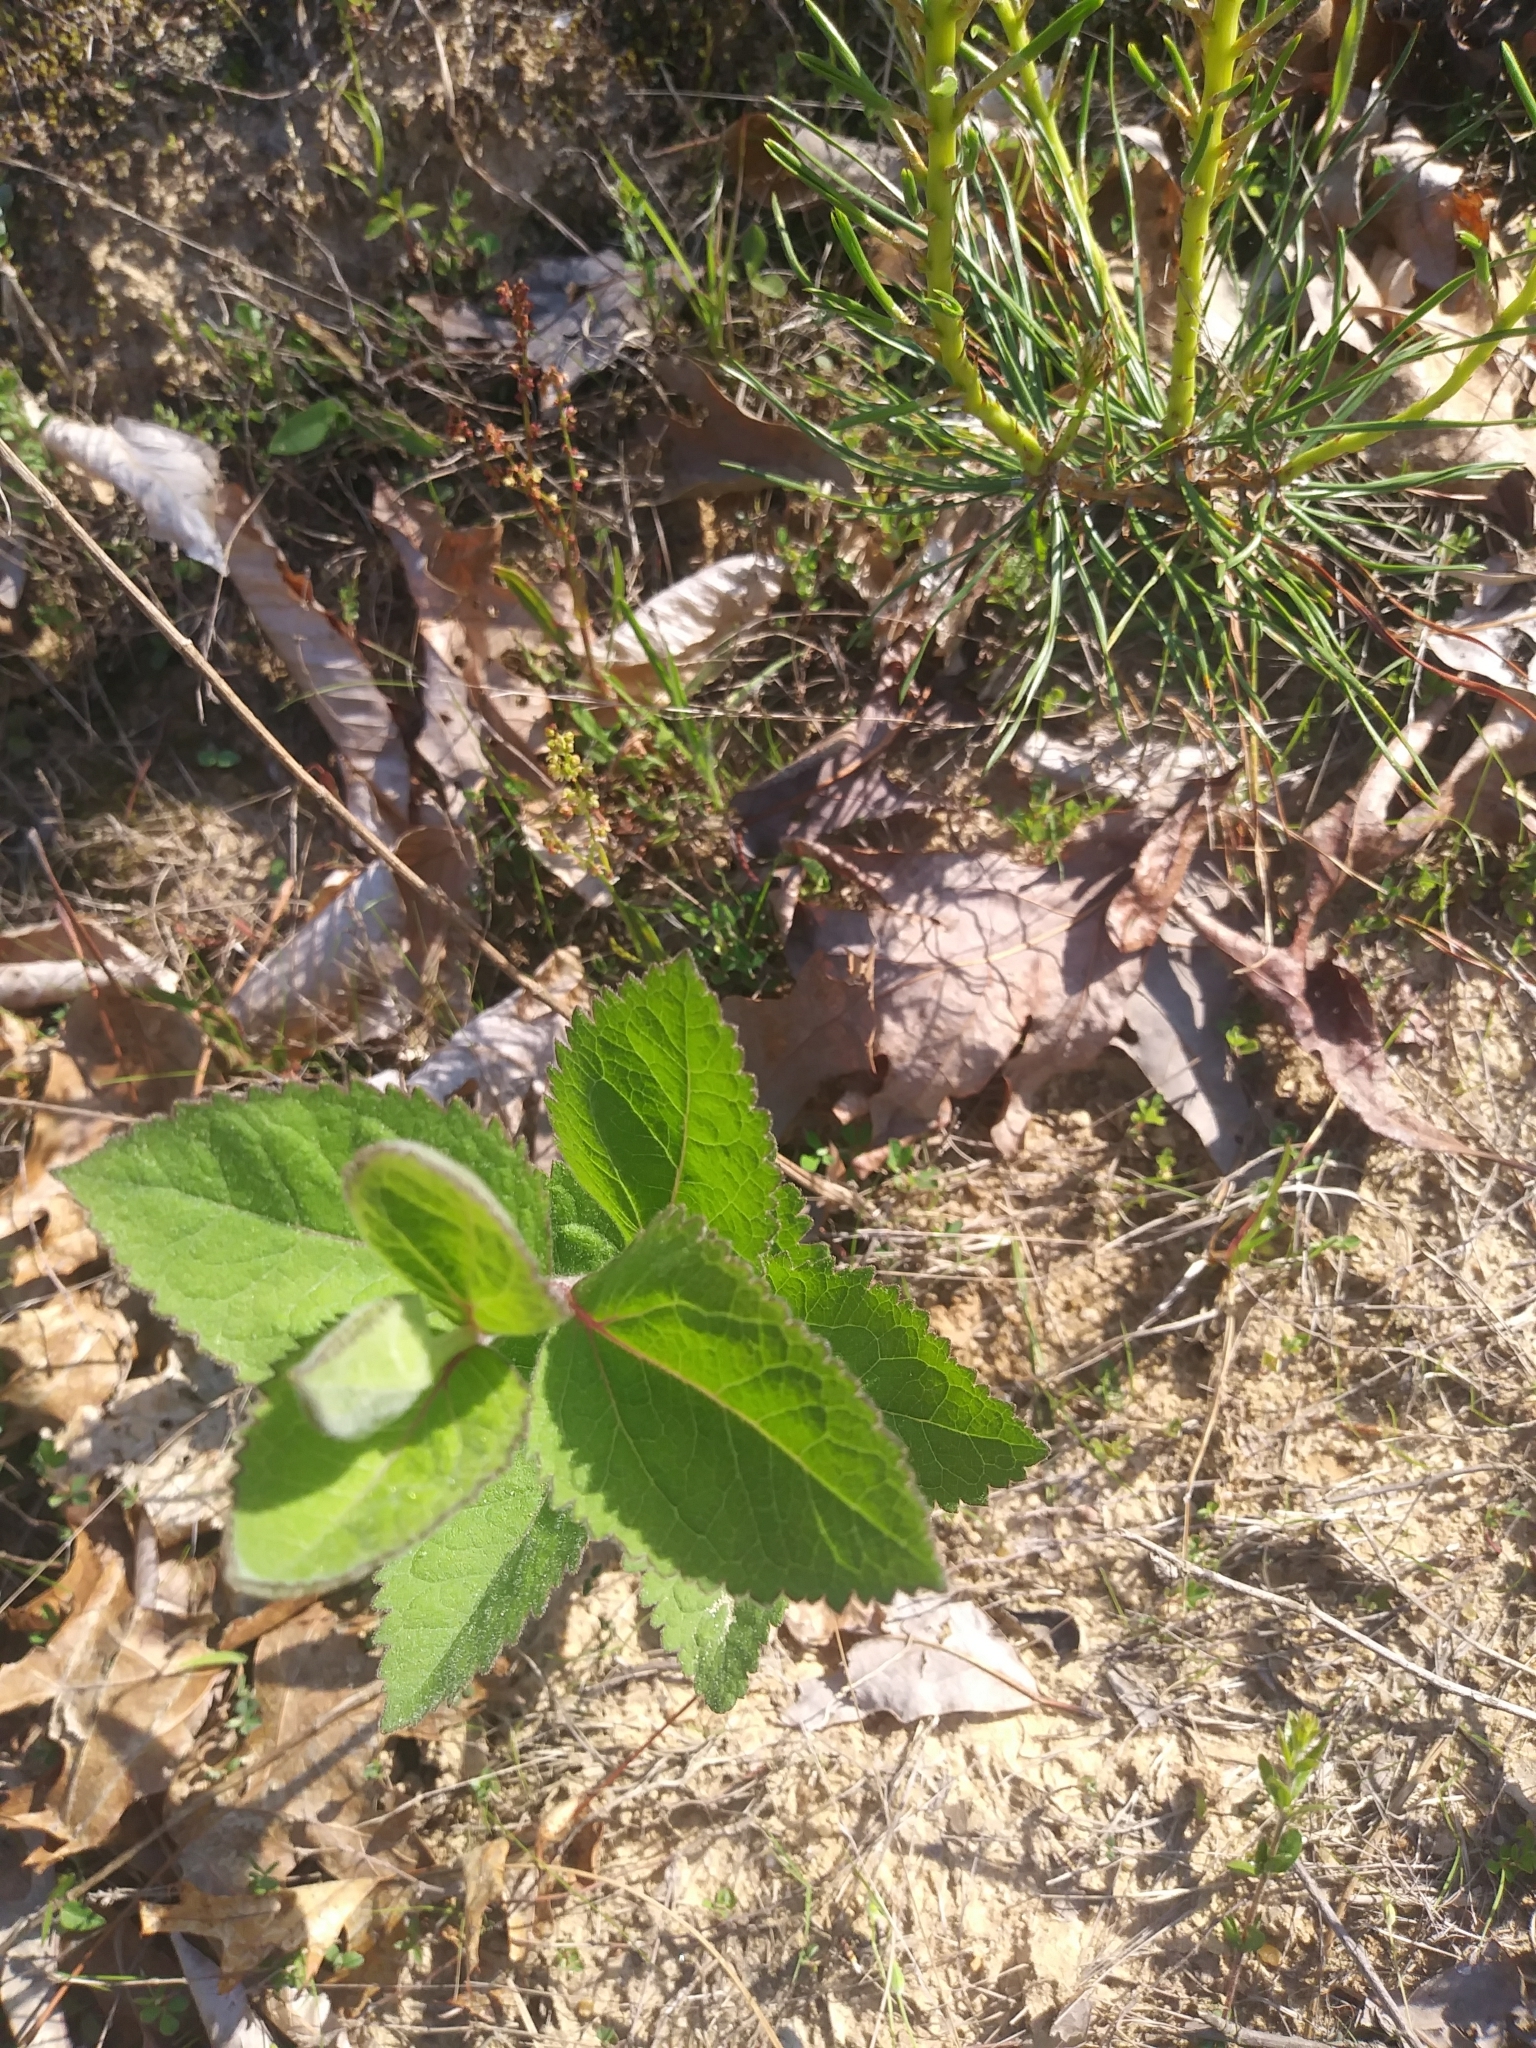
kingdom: Plantae
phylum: Tracheophyta
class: Magnoliopsida
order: Asterales
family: Asteraceae
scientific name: Asteraceae
